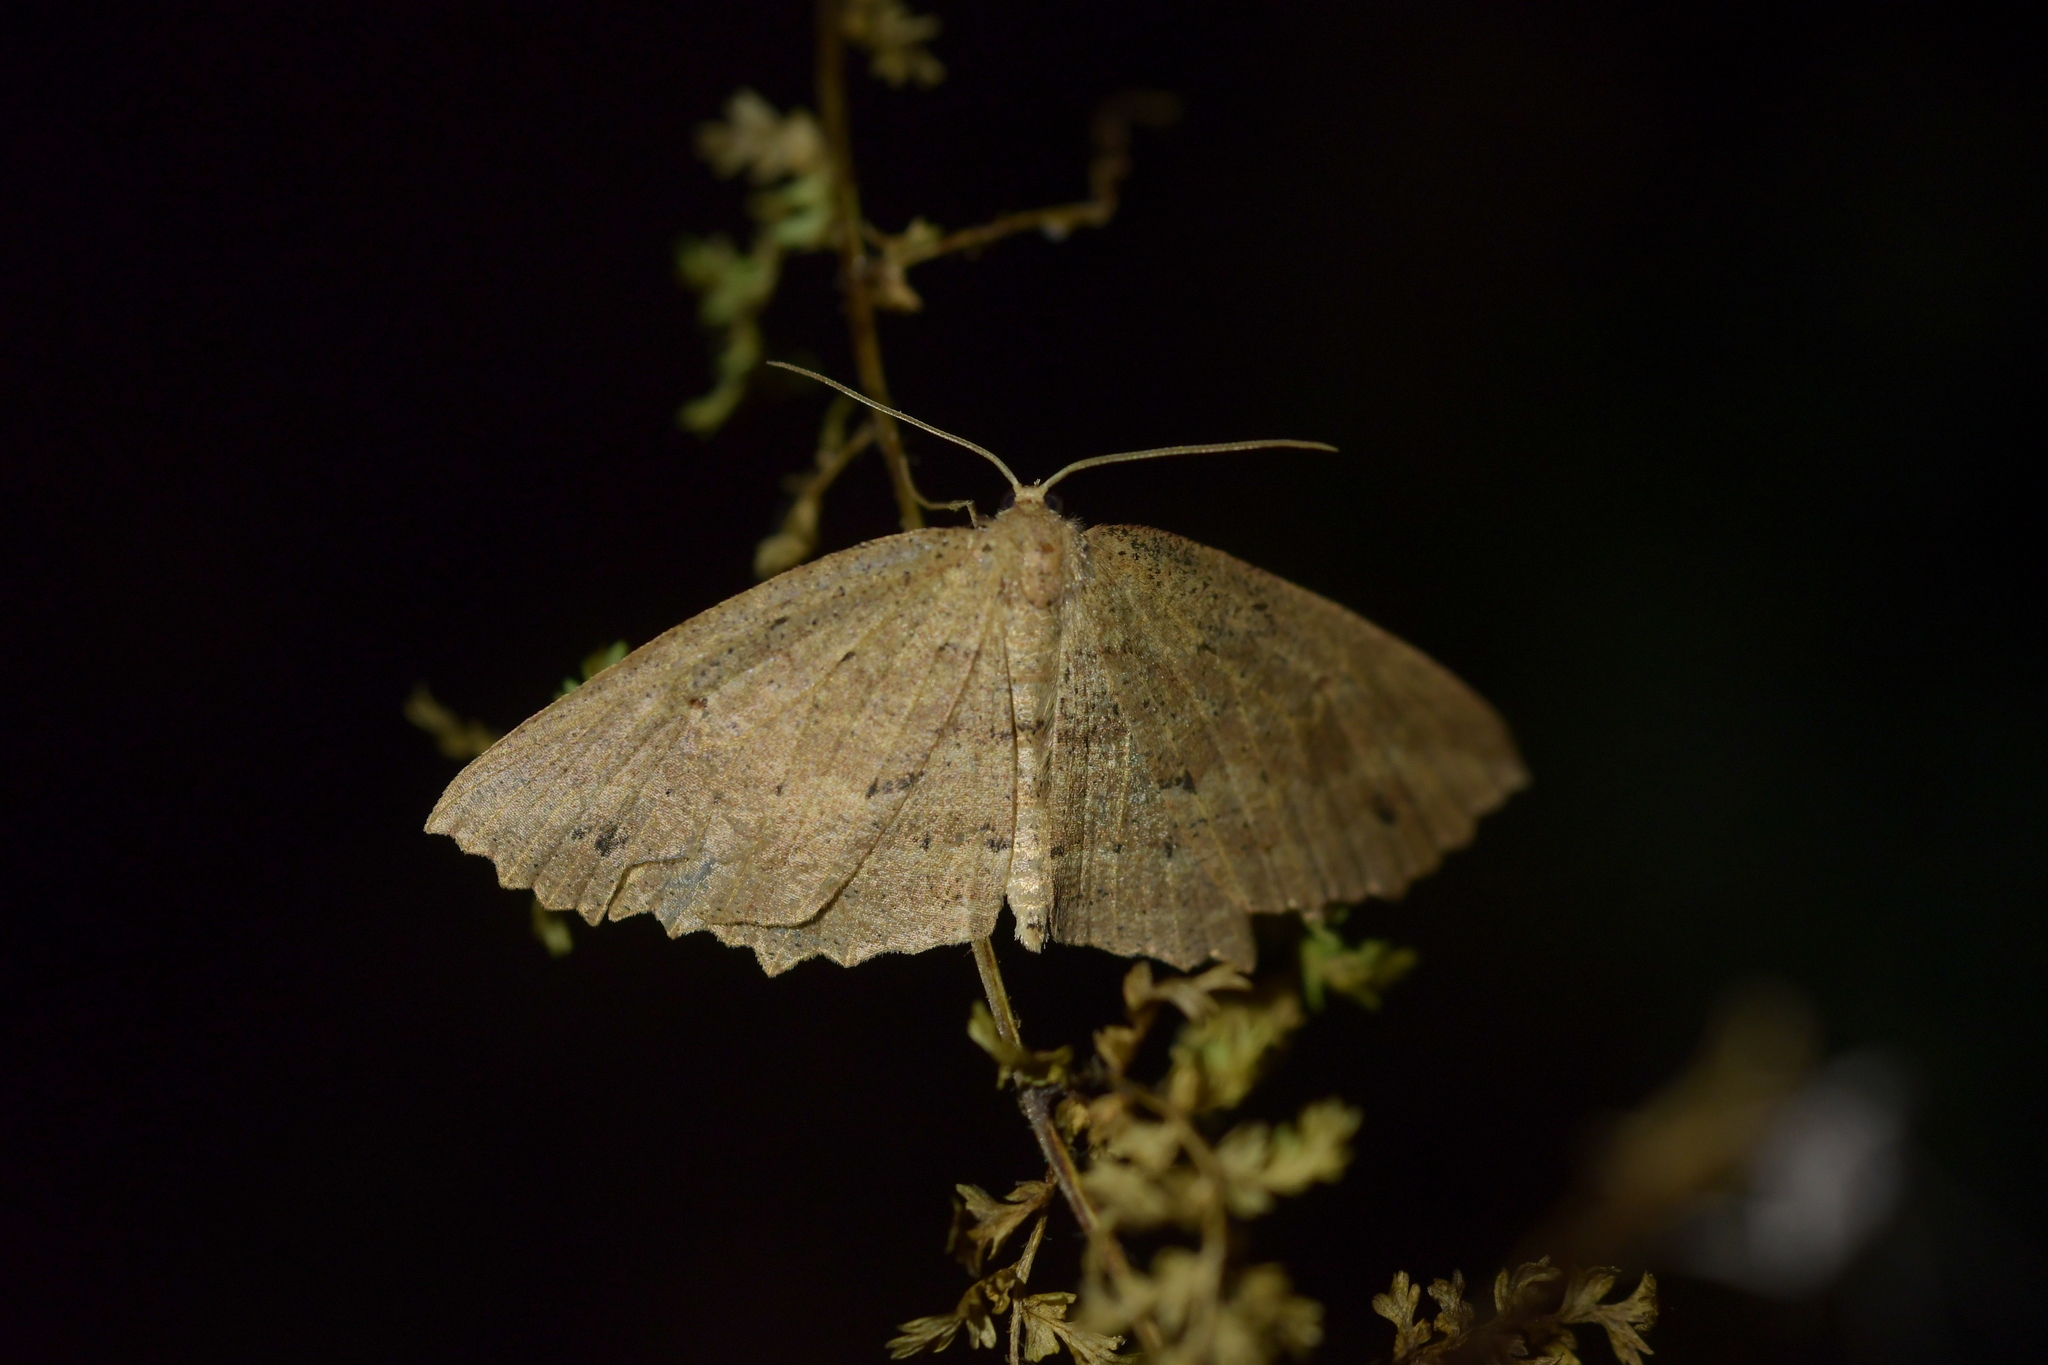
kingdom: Animalia
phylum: Arthropoda
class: Insecta
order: Lepidoptera
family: Geometridae
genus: Xyridacma
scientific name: Xyridacma veronicae
